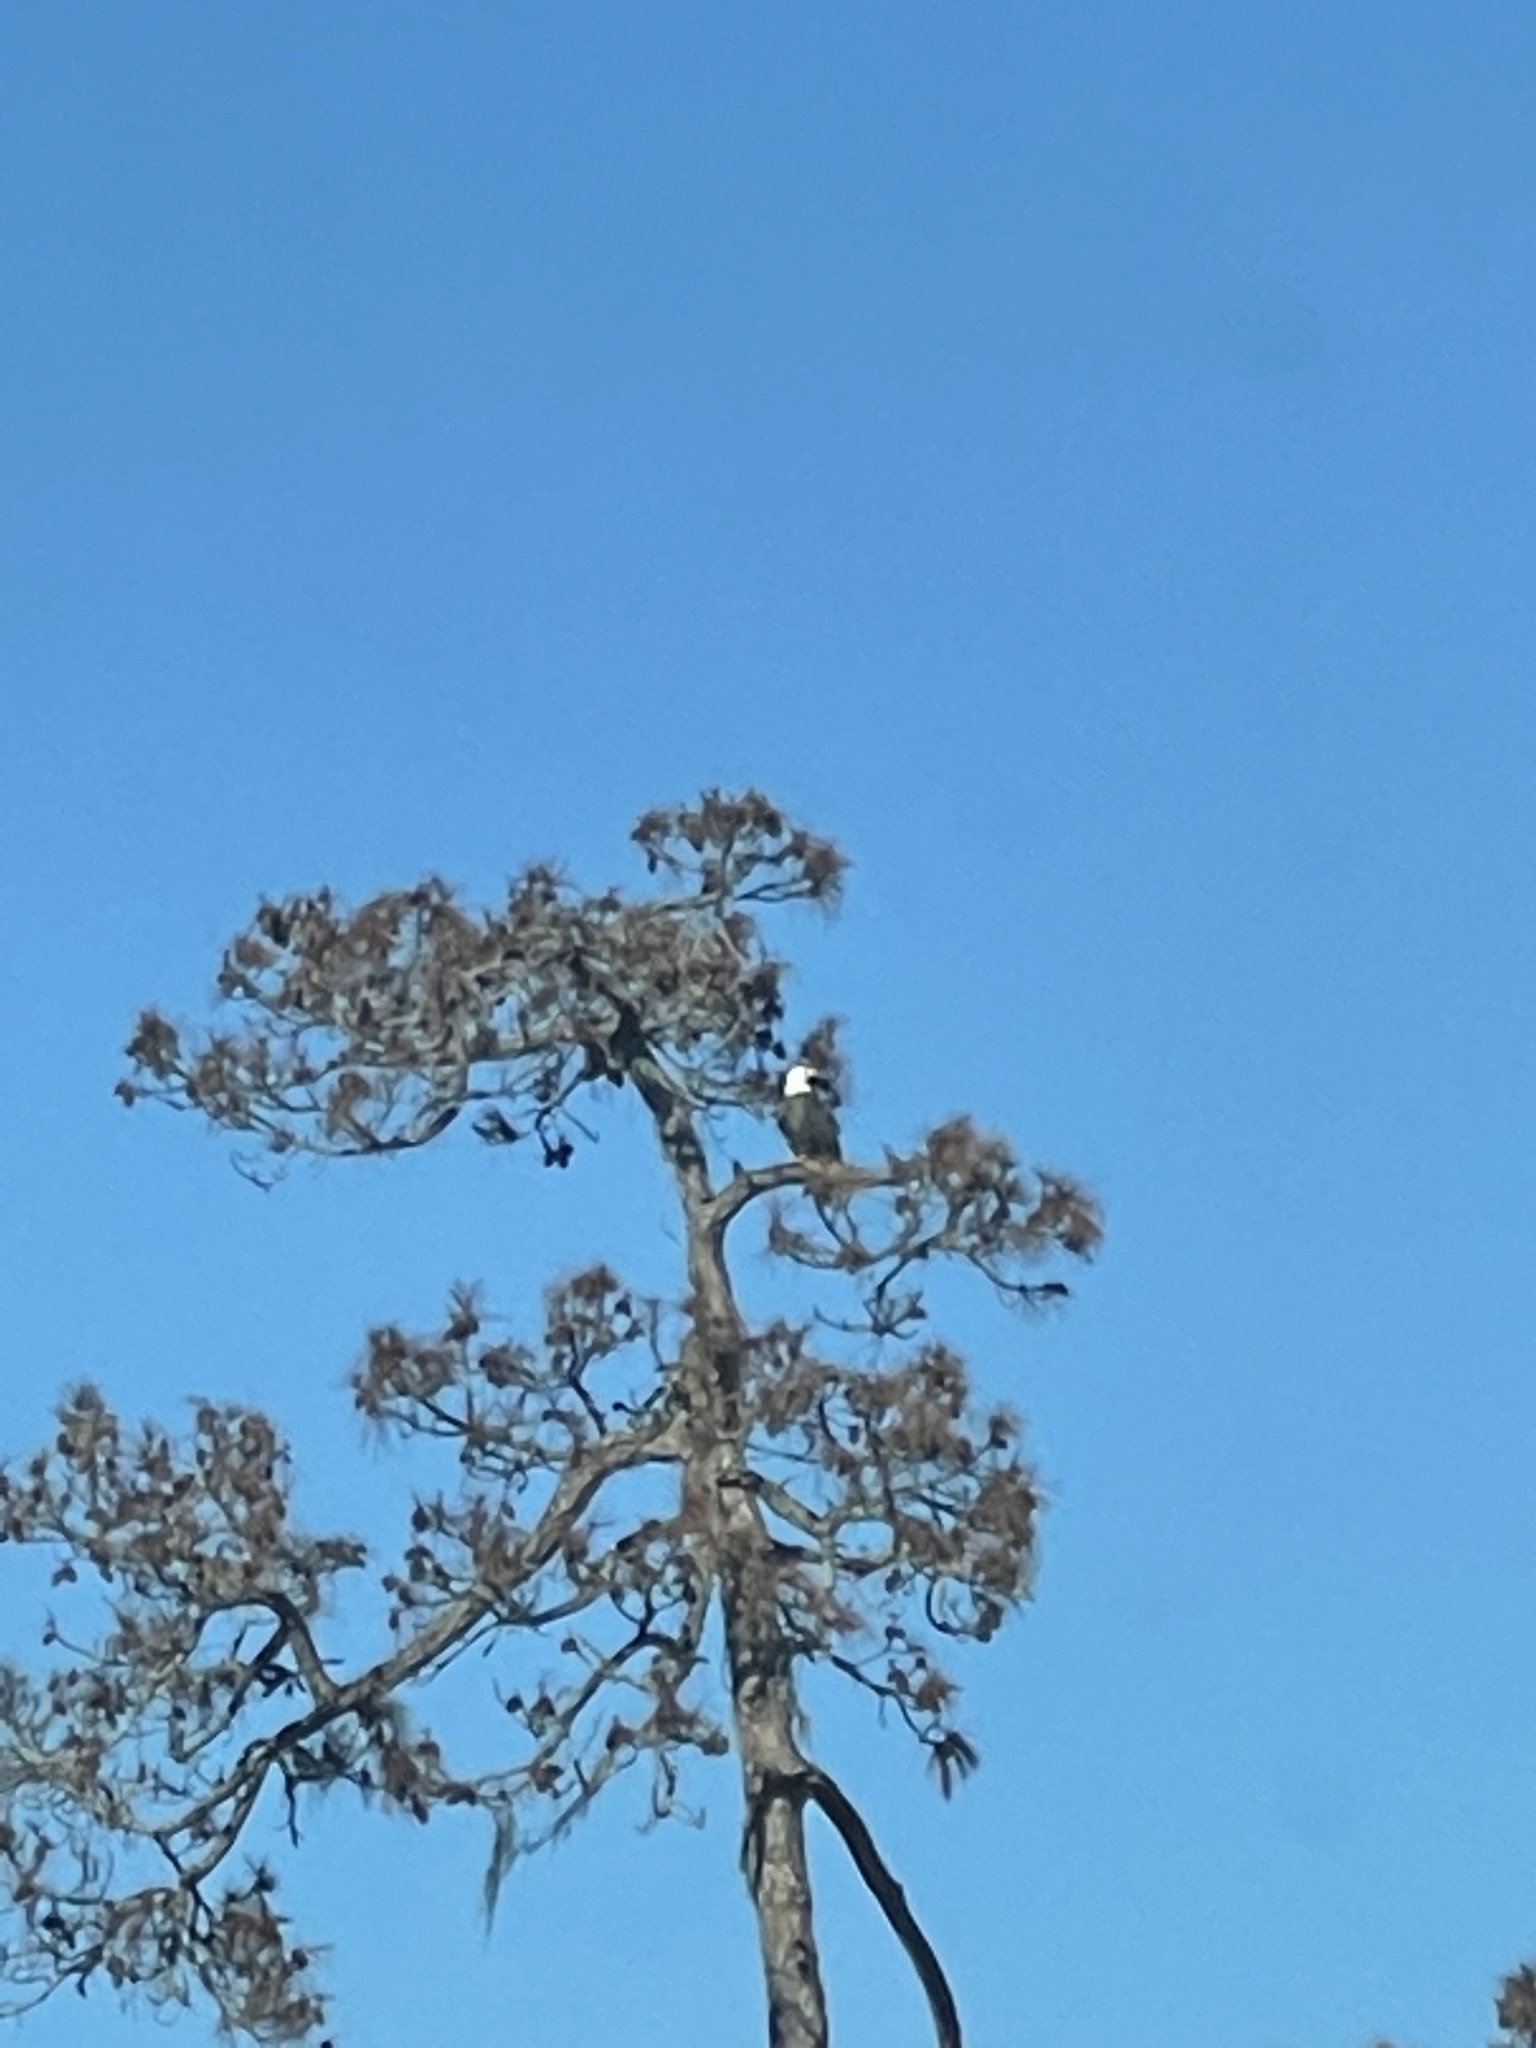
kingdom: Animalia
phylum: Chordata
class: Aves
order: Accipitriformes
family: Accipitridae
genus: Haliaeetus
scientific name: Haliaeetus leucocephalus
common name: Bald eagle
